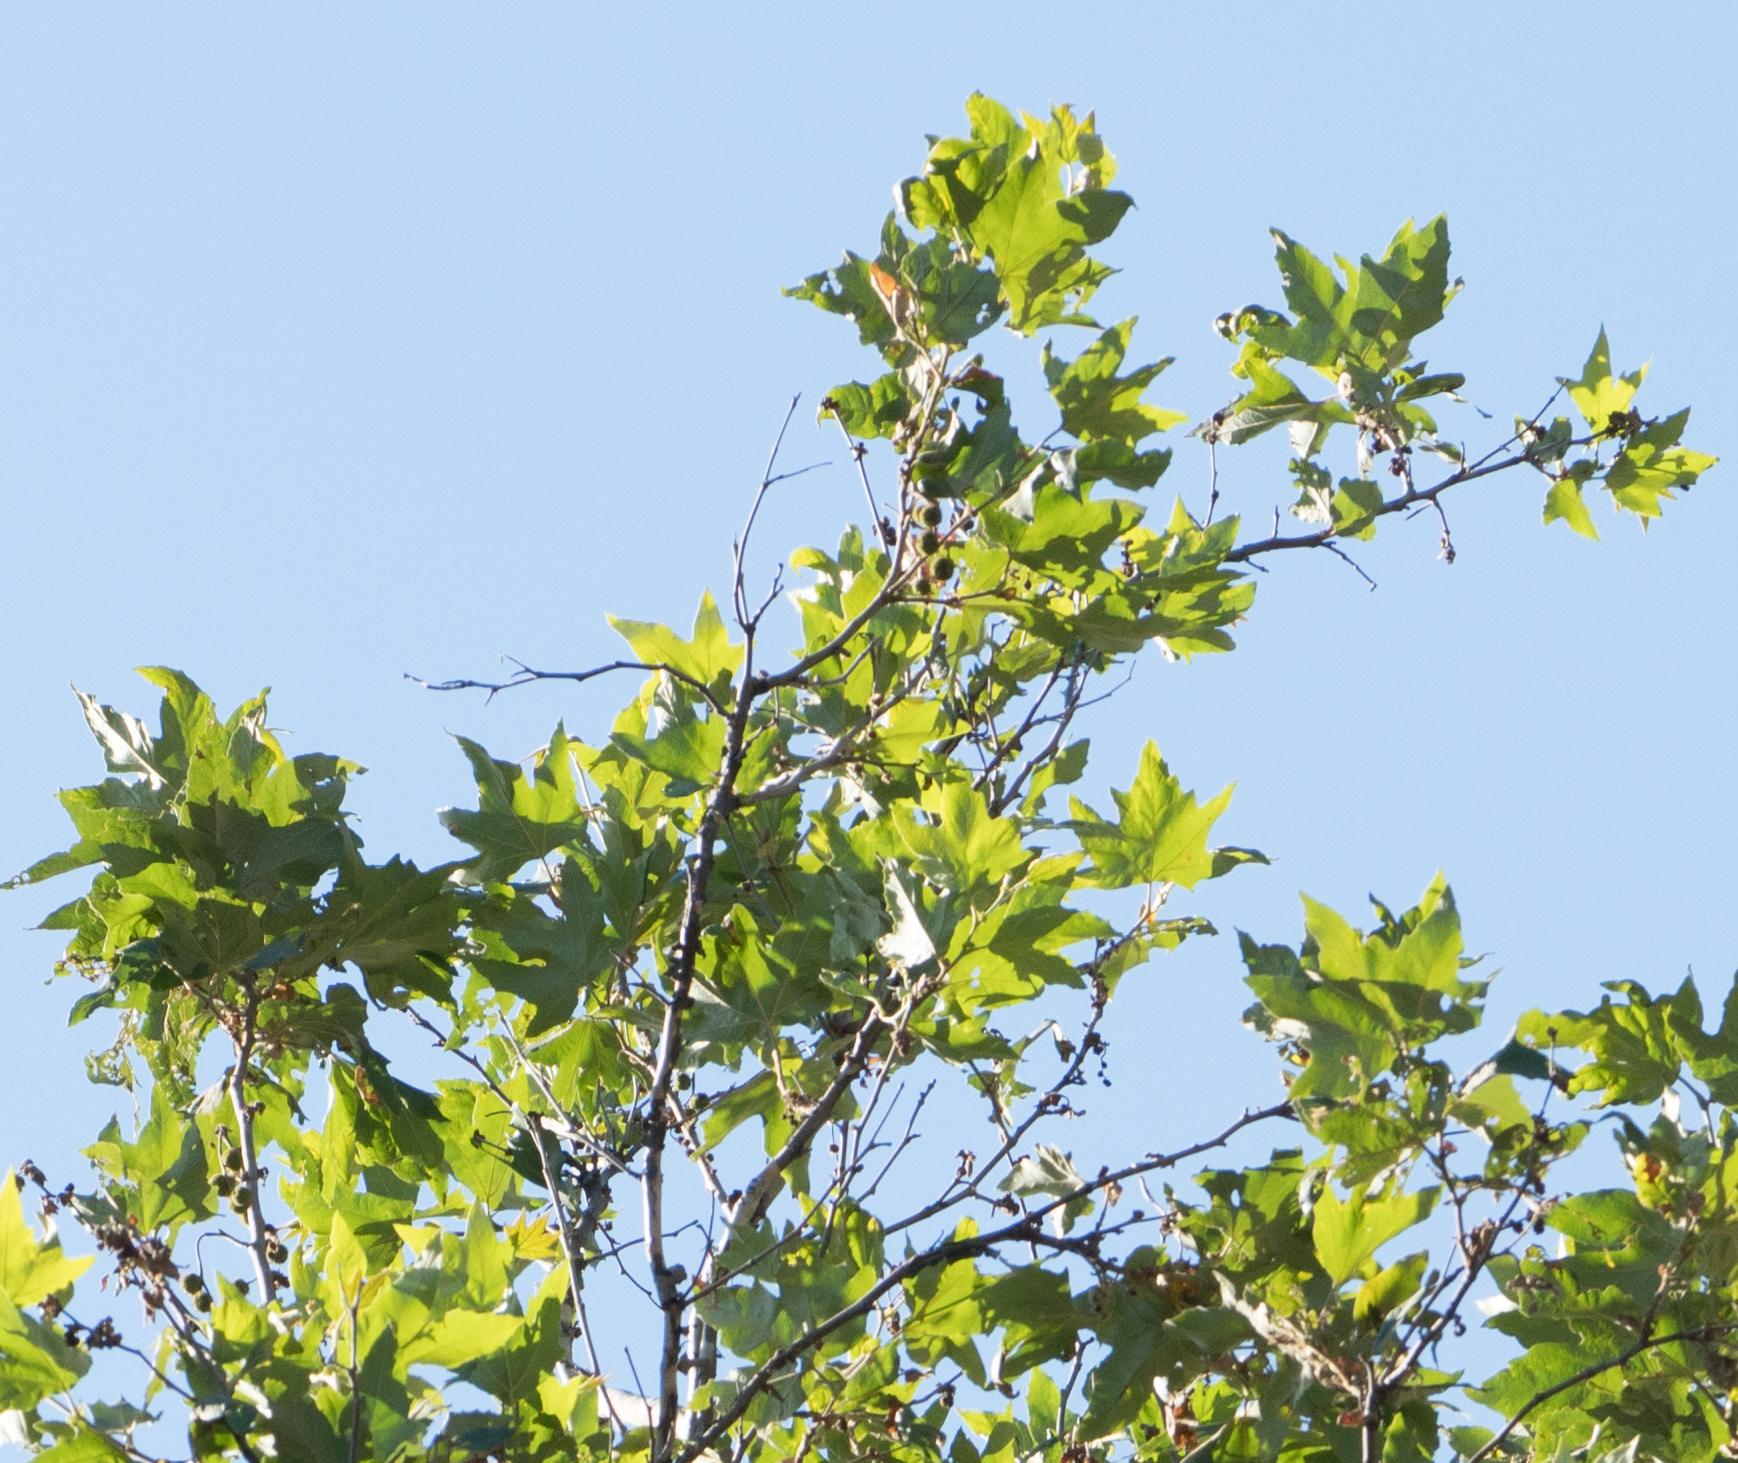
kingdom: Plantae
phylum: Tracheophyta
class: Magnoliopsida
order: Proteales
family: Platanaceae
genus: Platanus
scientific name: Platanus racemosa
